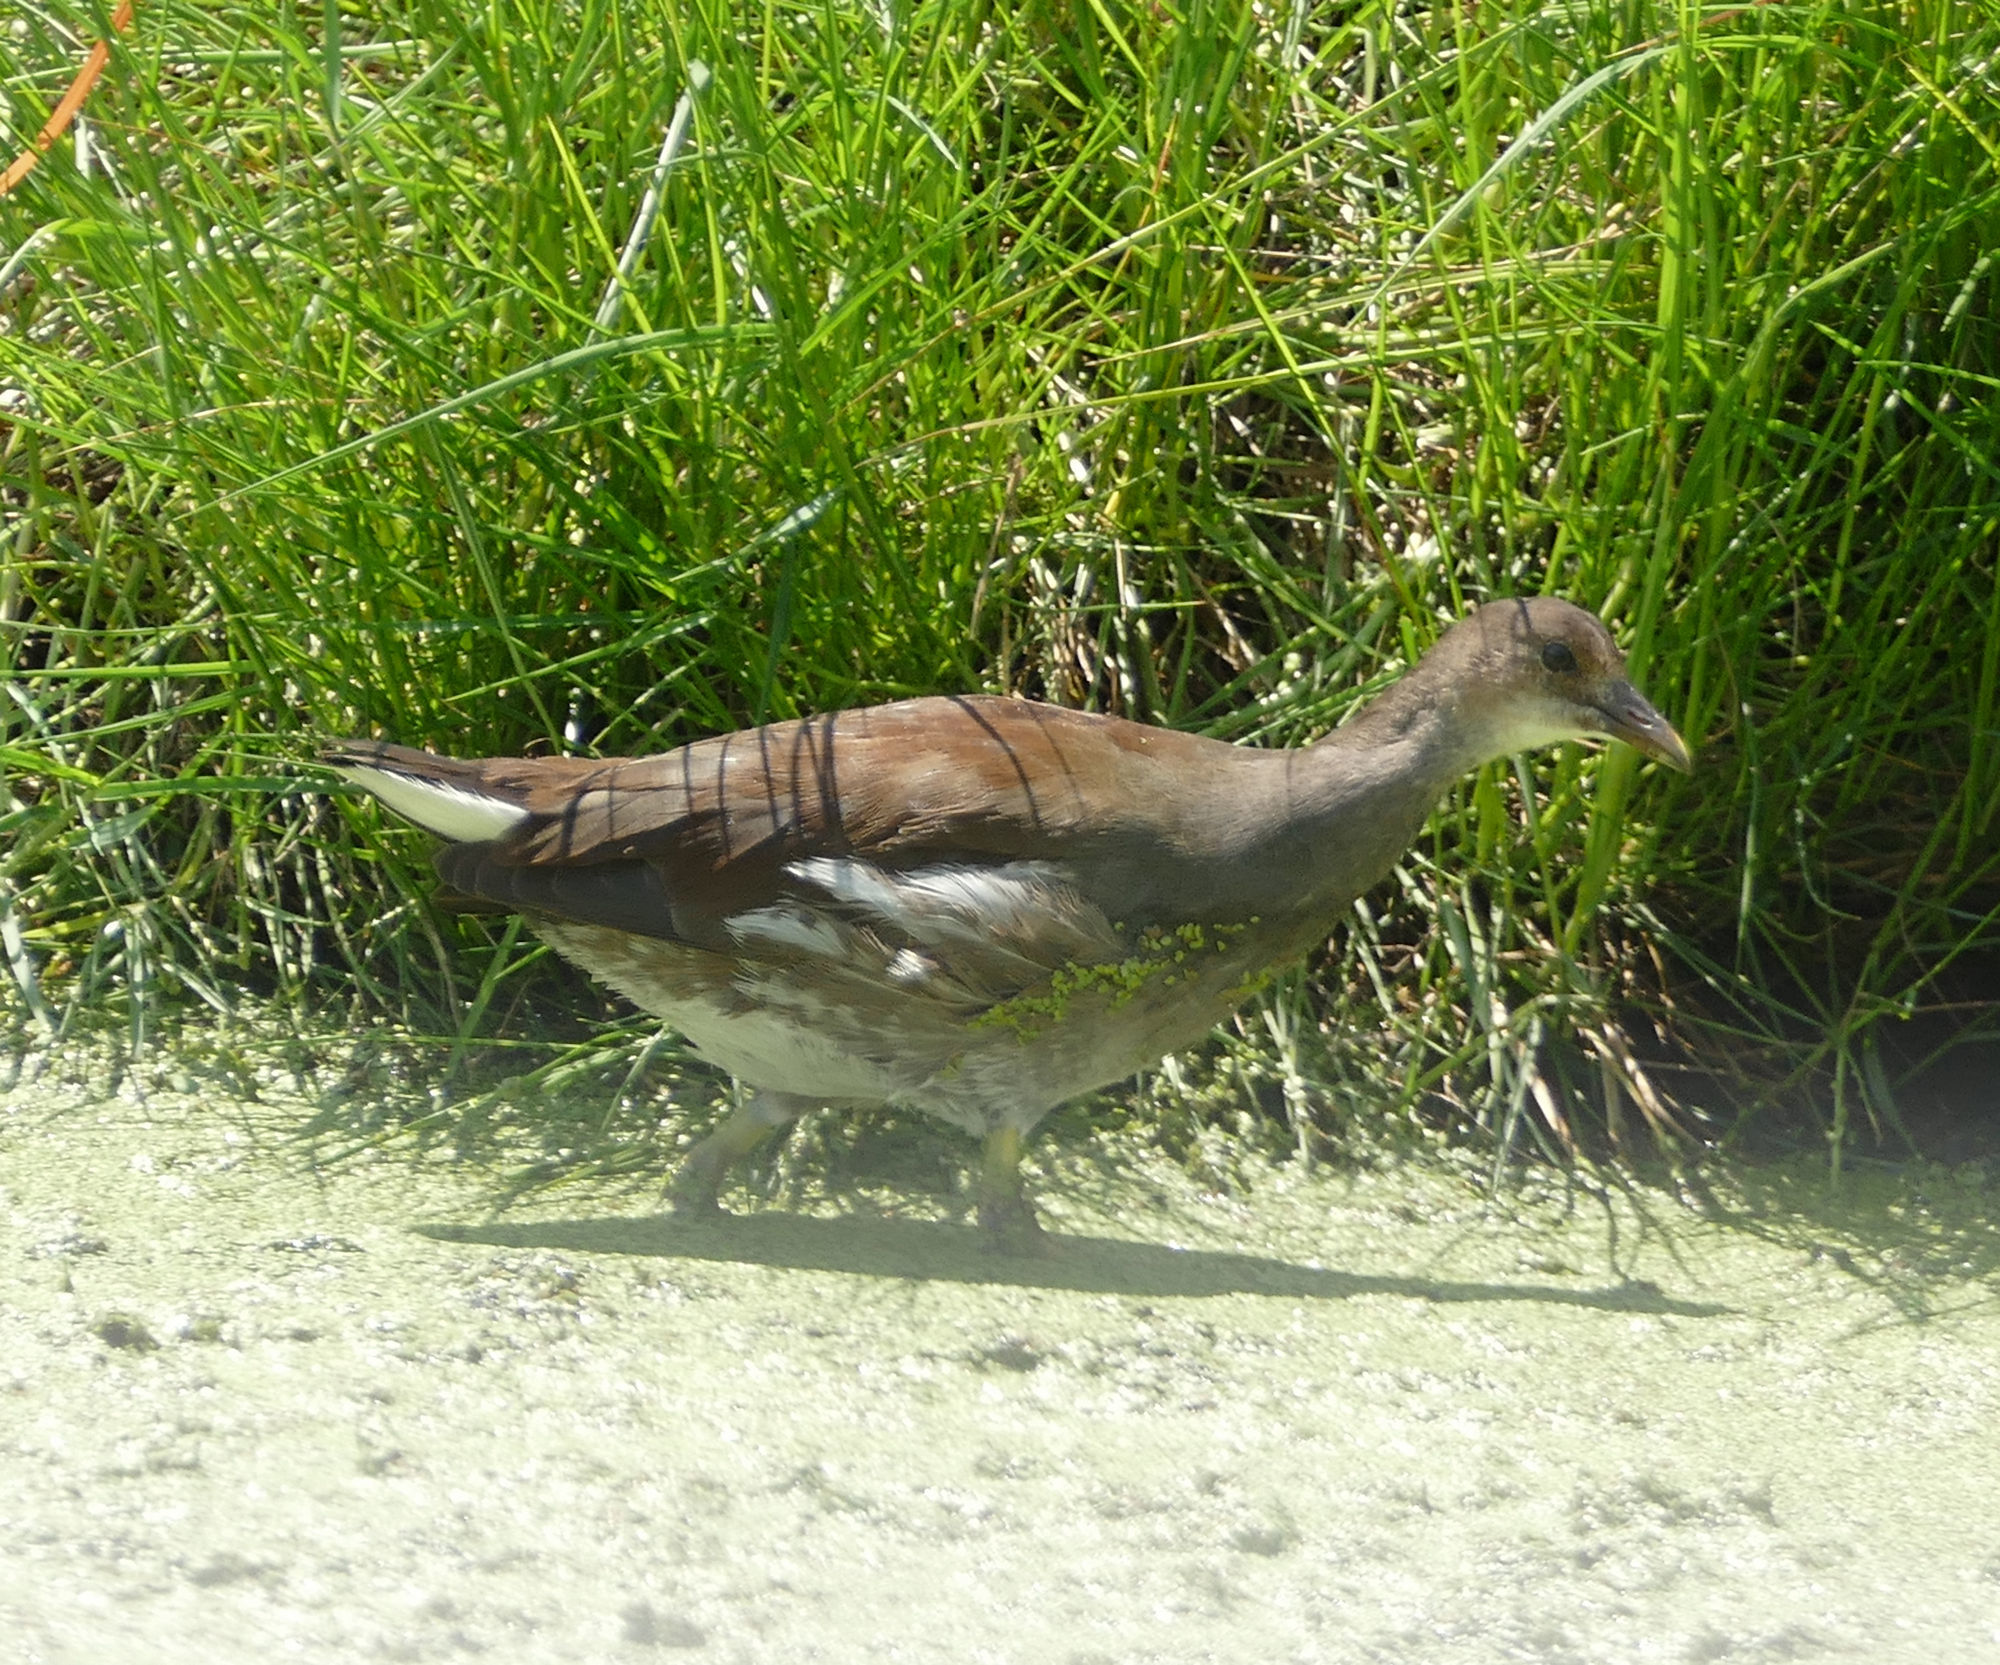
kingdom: Animalia
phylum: Chordata
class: Aves
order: Gruiformes
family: Rallidae
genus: Gallinula
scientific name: Gallinula chloropus
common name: Common moorhen
